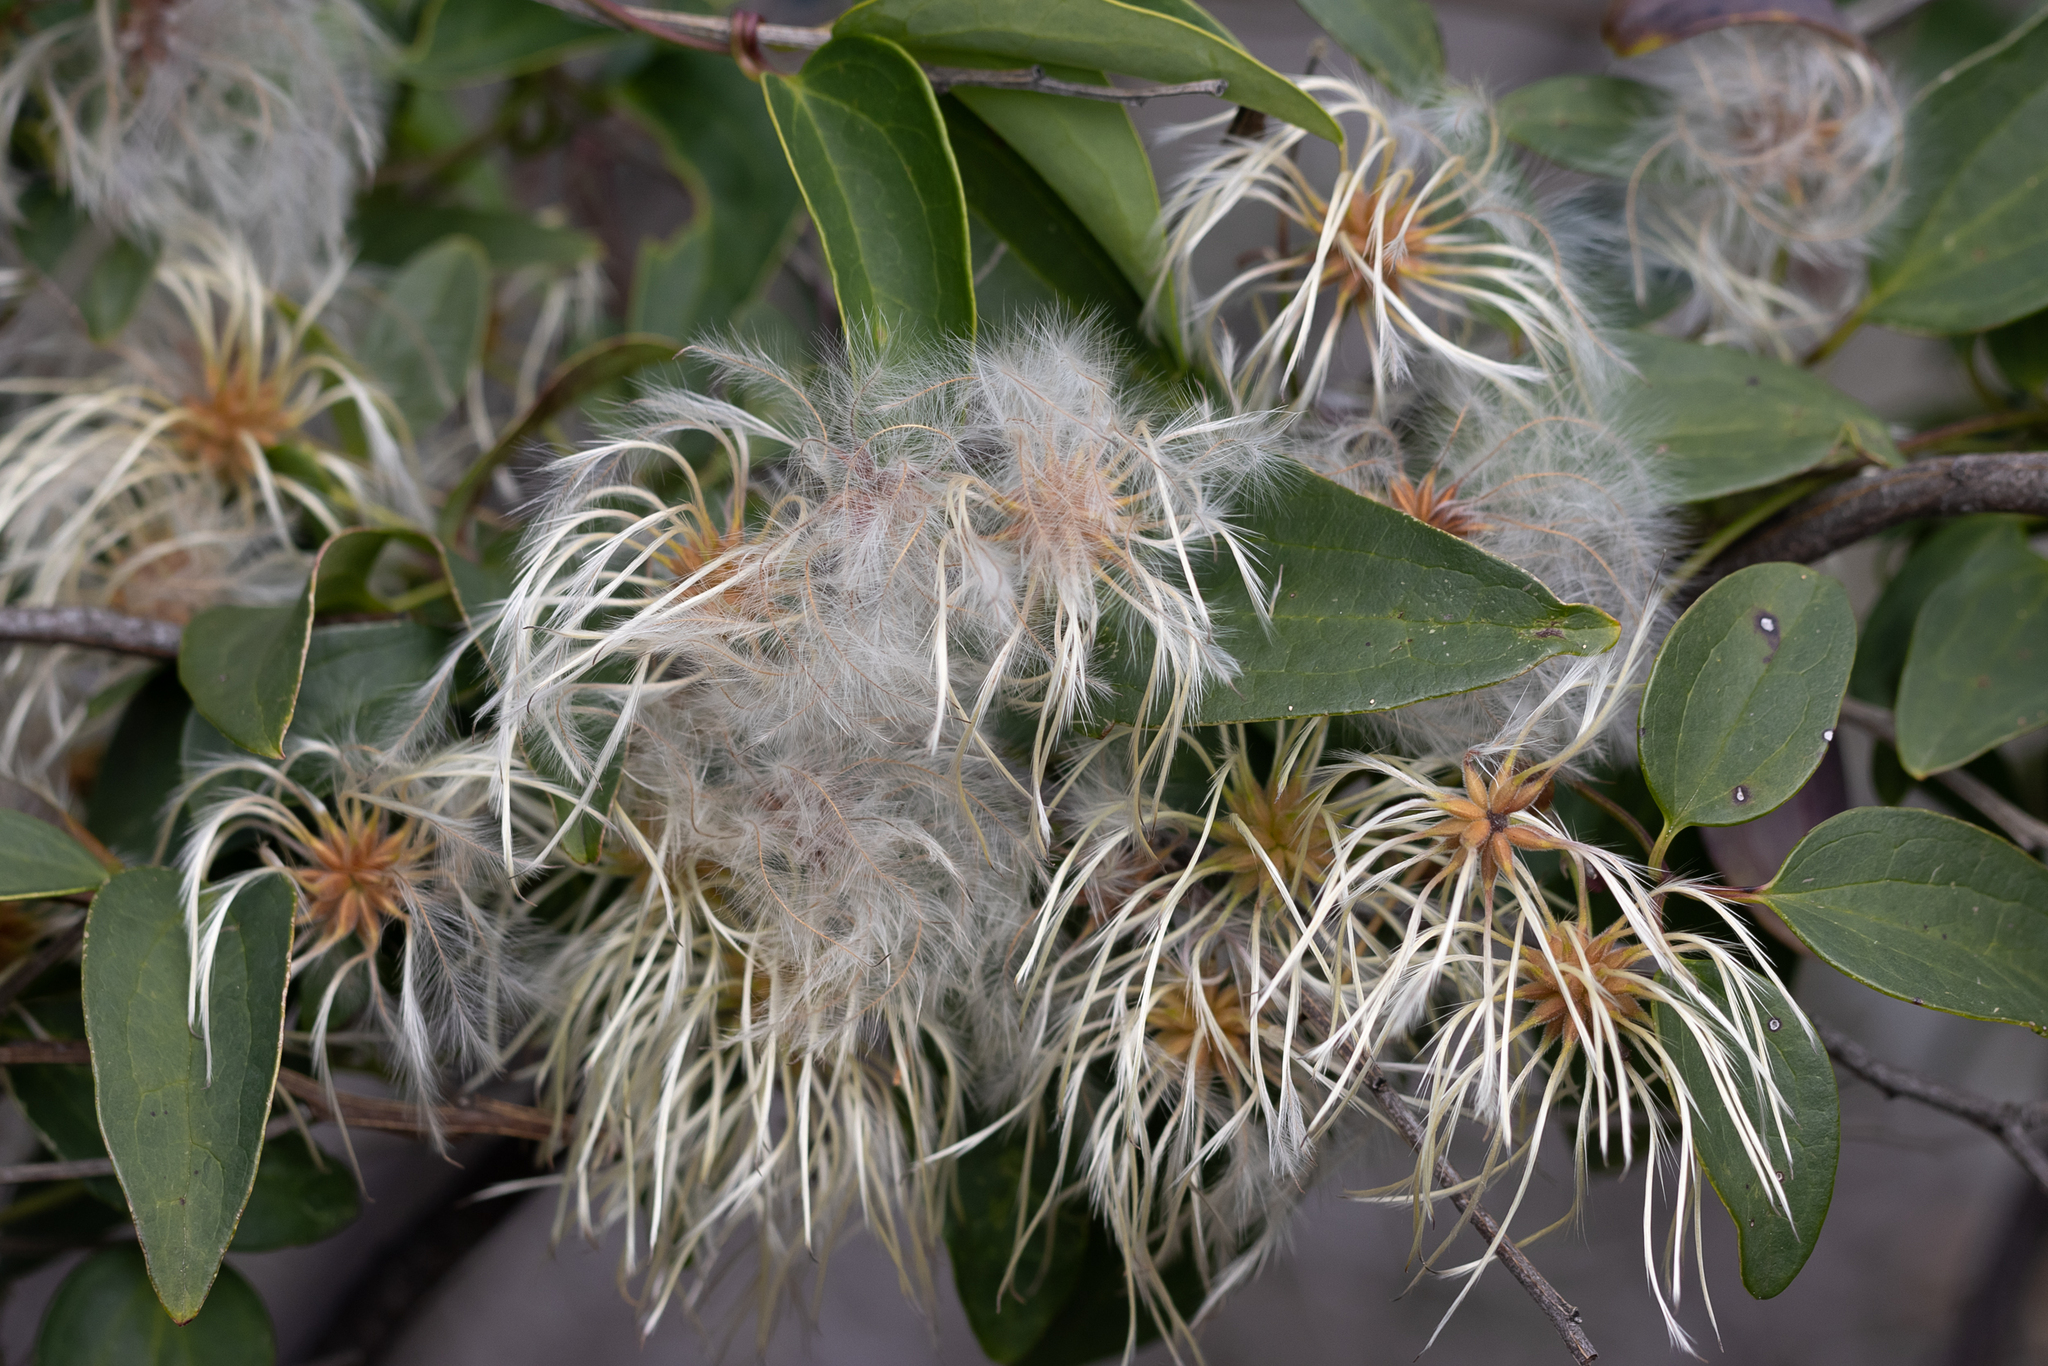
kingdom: Plantae
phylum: Tracheophyta
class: Magnoliopsida
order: Ranunculales
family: Ranunculaceae
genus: Clematis
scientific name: Clematis pubescens
